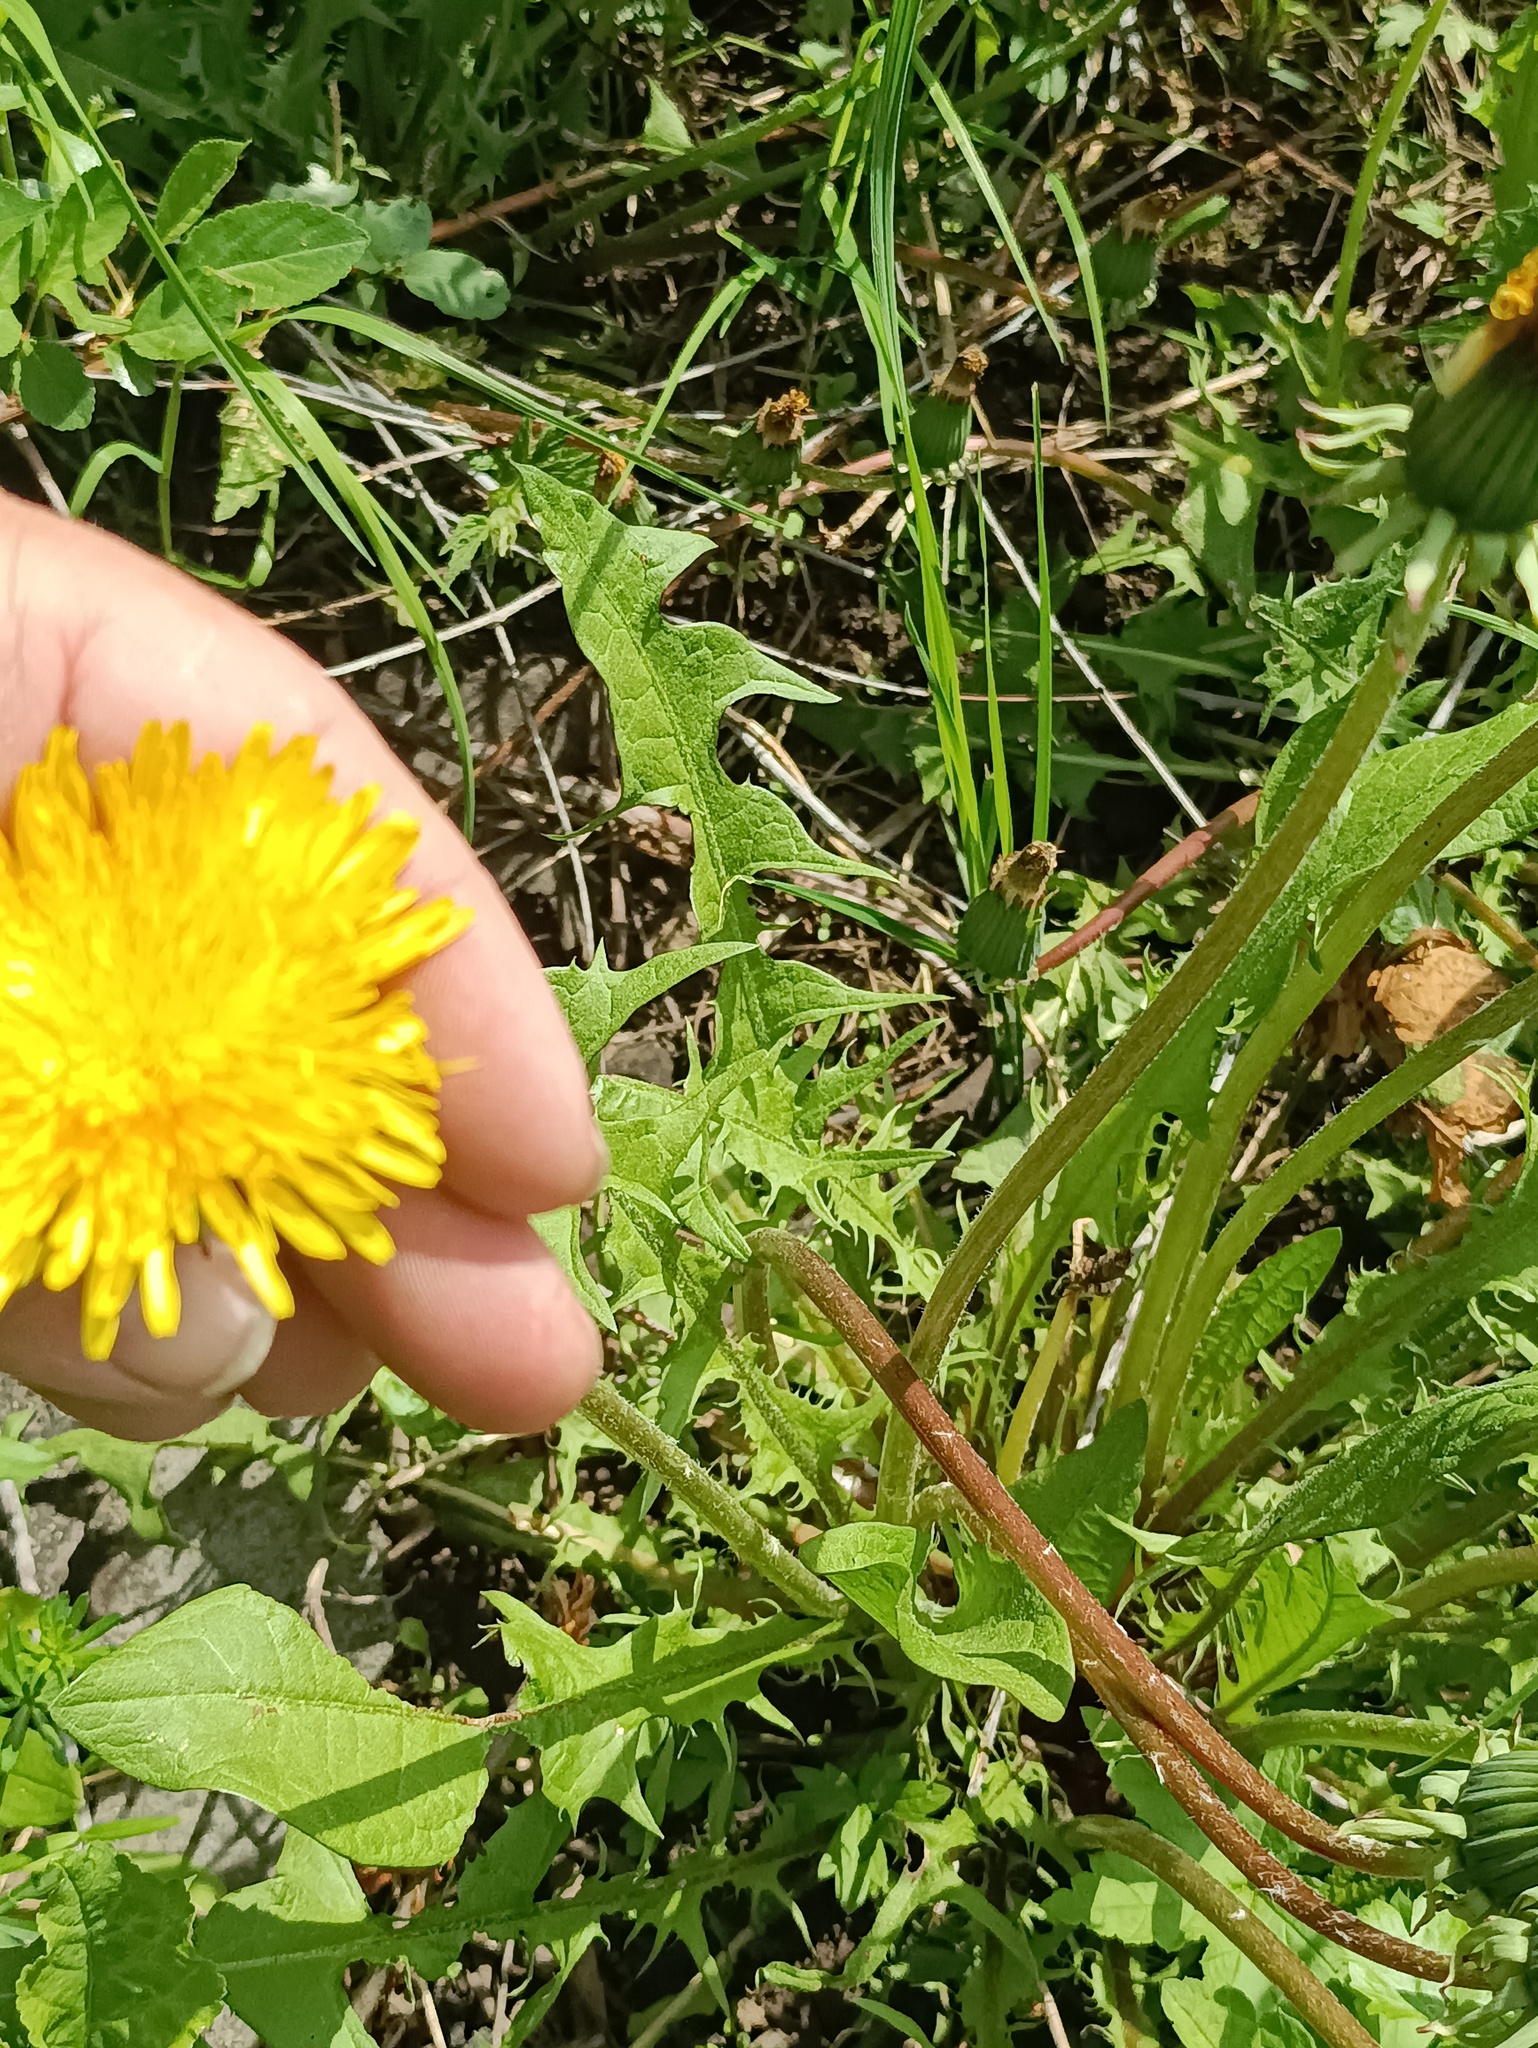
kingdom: Plantae
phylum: Tracheophyta
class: Magnoliopsida
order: Asterales
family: Asteraceae
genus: Taraxacum
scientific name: Taraxacum officinale
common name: Common dandelion
